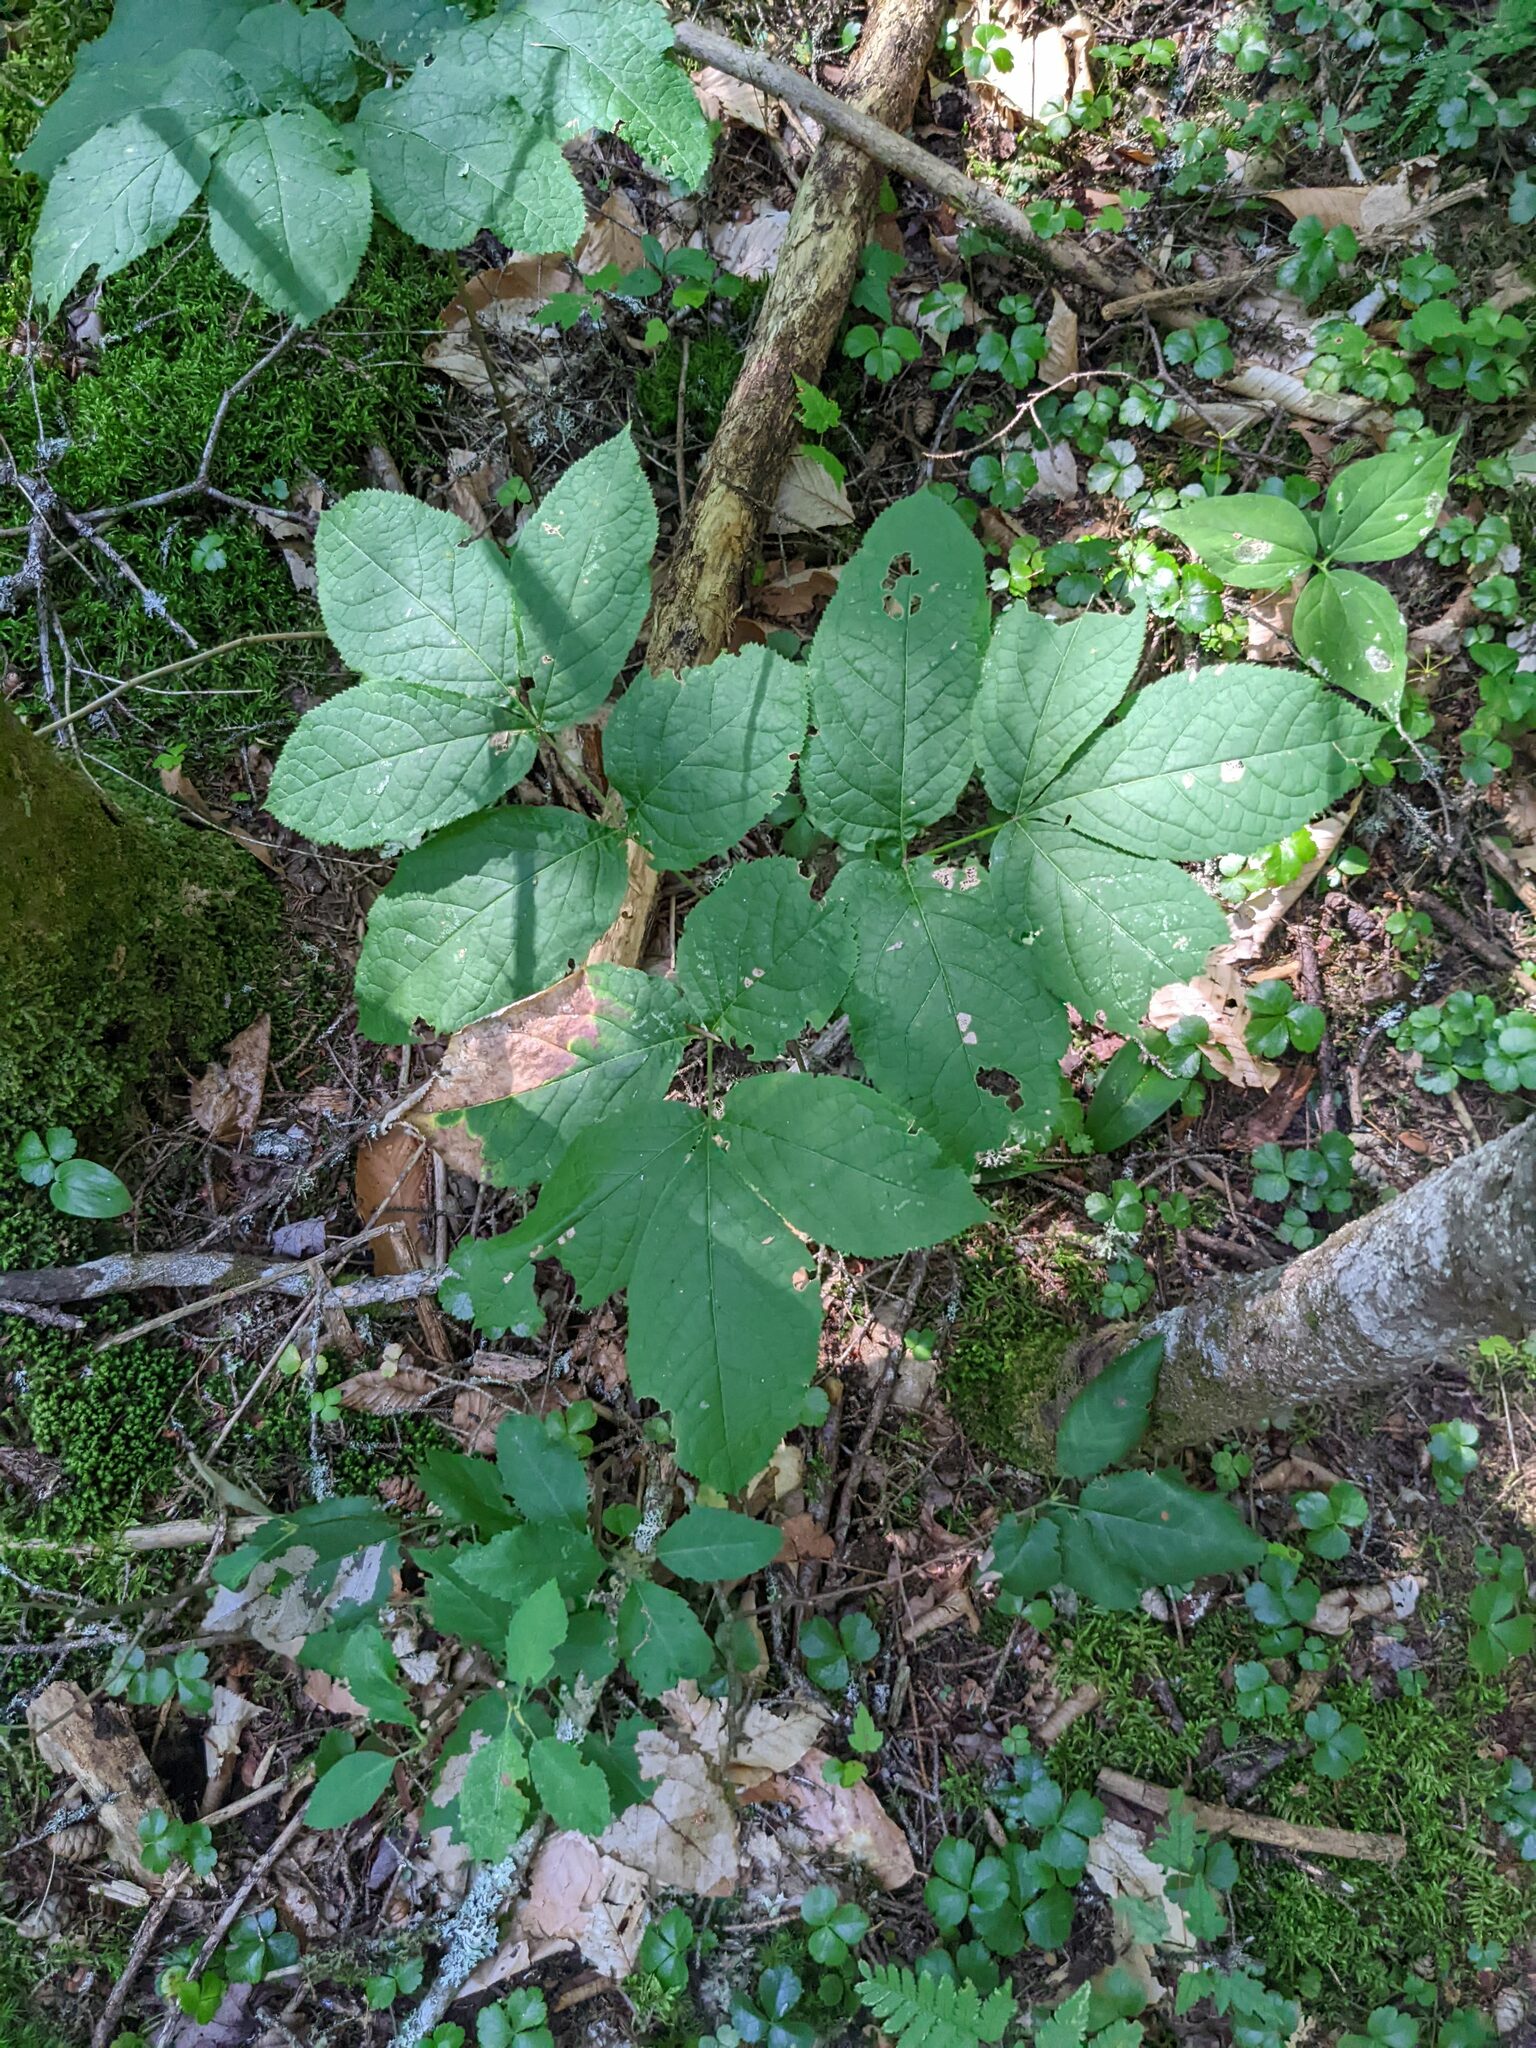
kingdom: Plantae
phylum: Tracheophyta
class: Magnoliopsida
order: Apiales
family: Araliaceae
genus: Aralia
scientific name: Aralia nudicaulis
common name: Wild sarsaparilla
